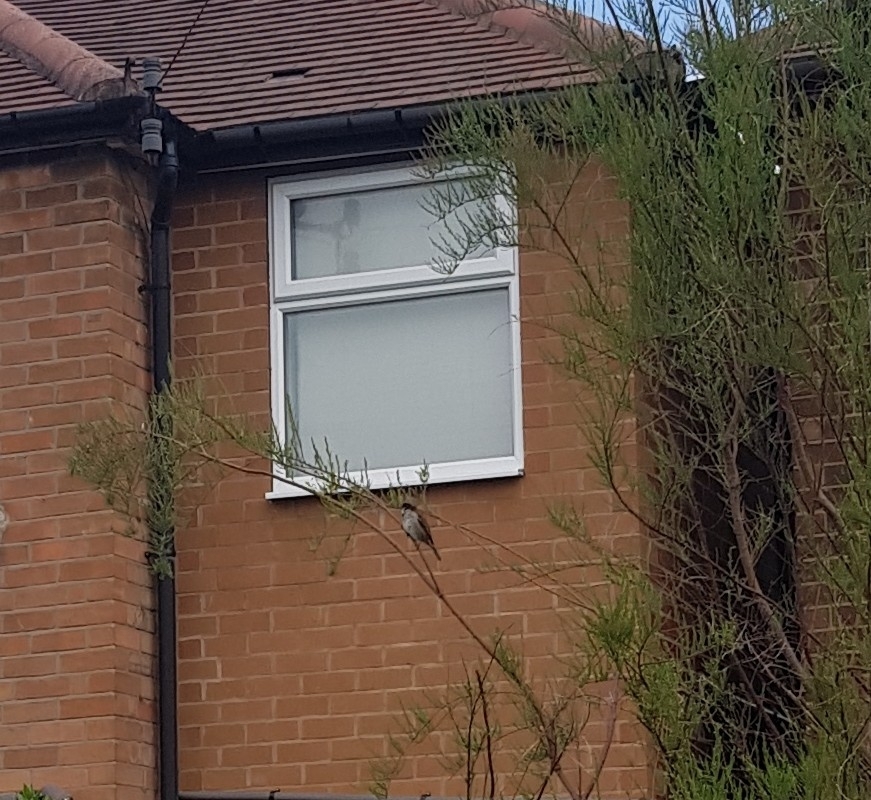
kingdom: Animalia
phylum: Chordata
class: Aves
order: Passeriformes
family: Passeridae
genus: Passer
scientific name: Passer domesticus
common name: House sparrow
